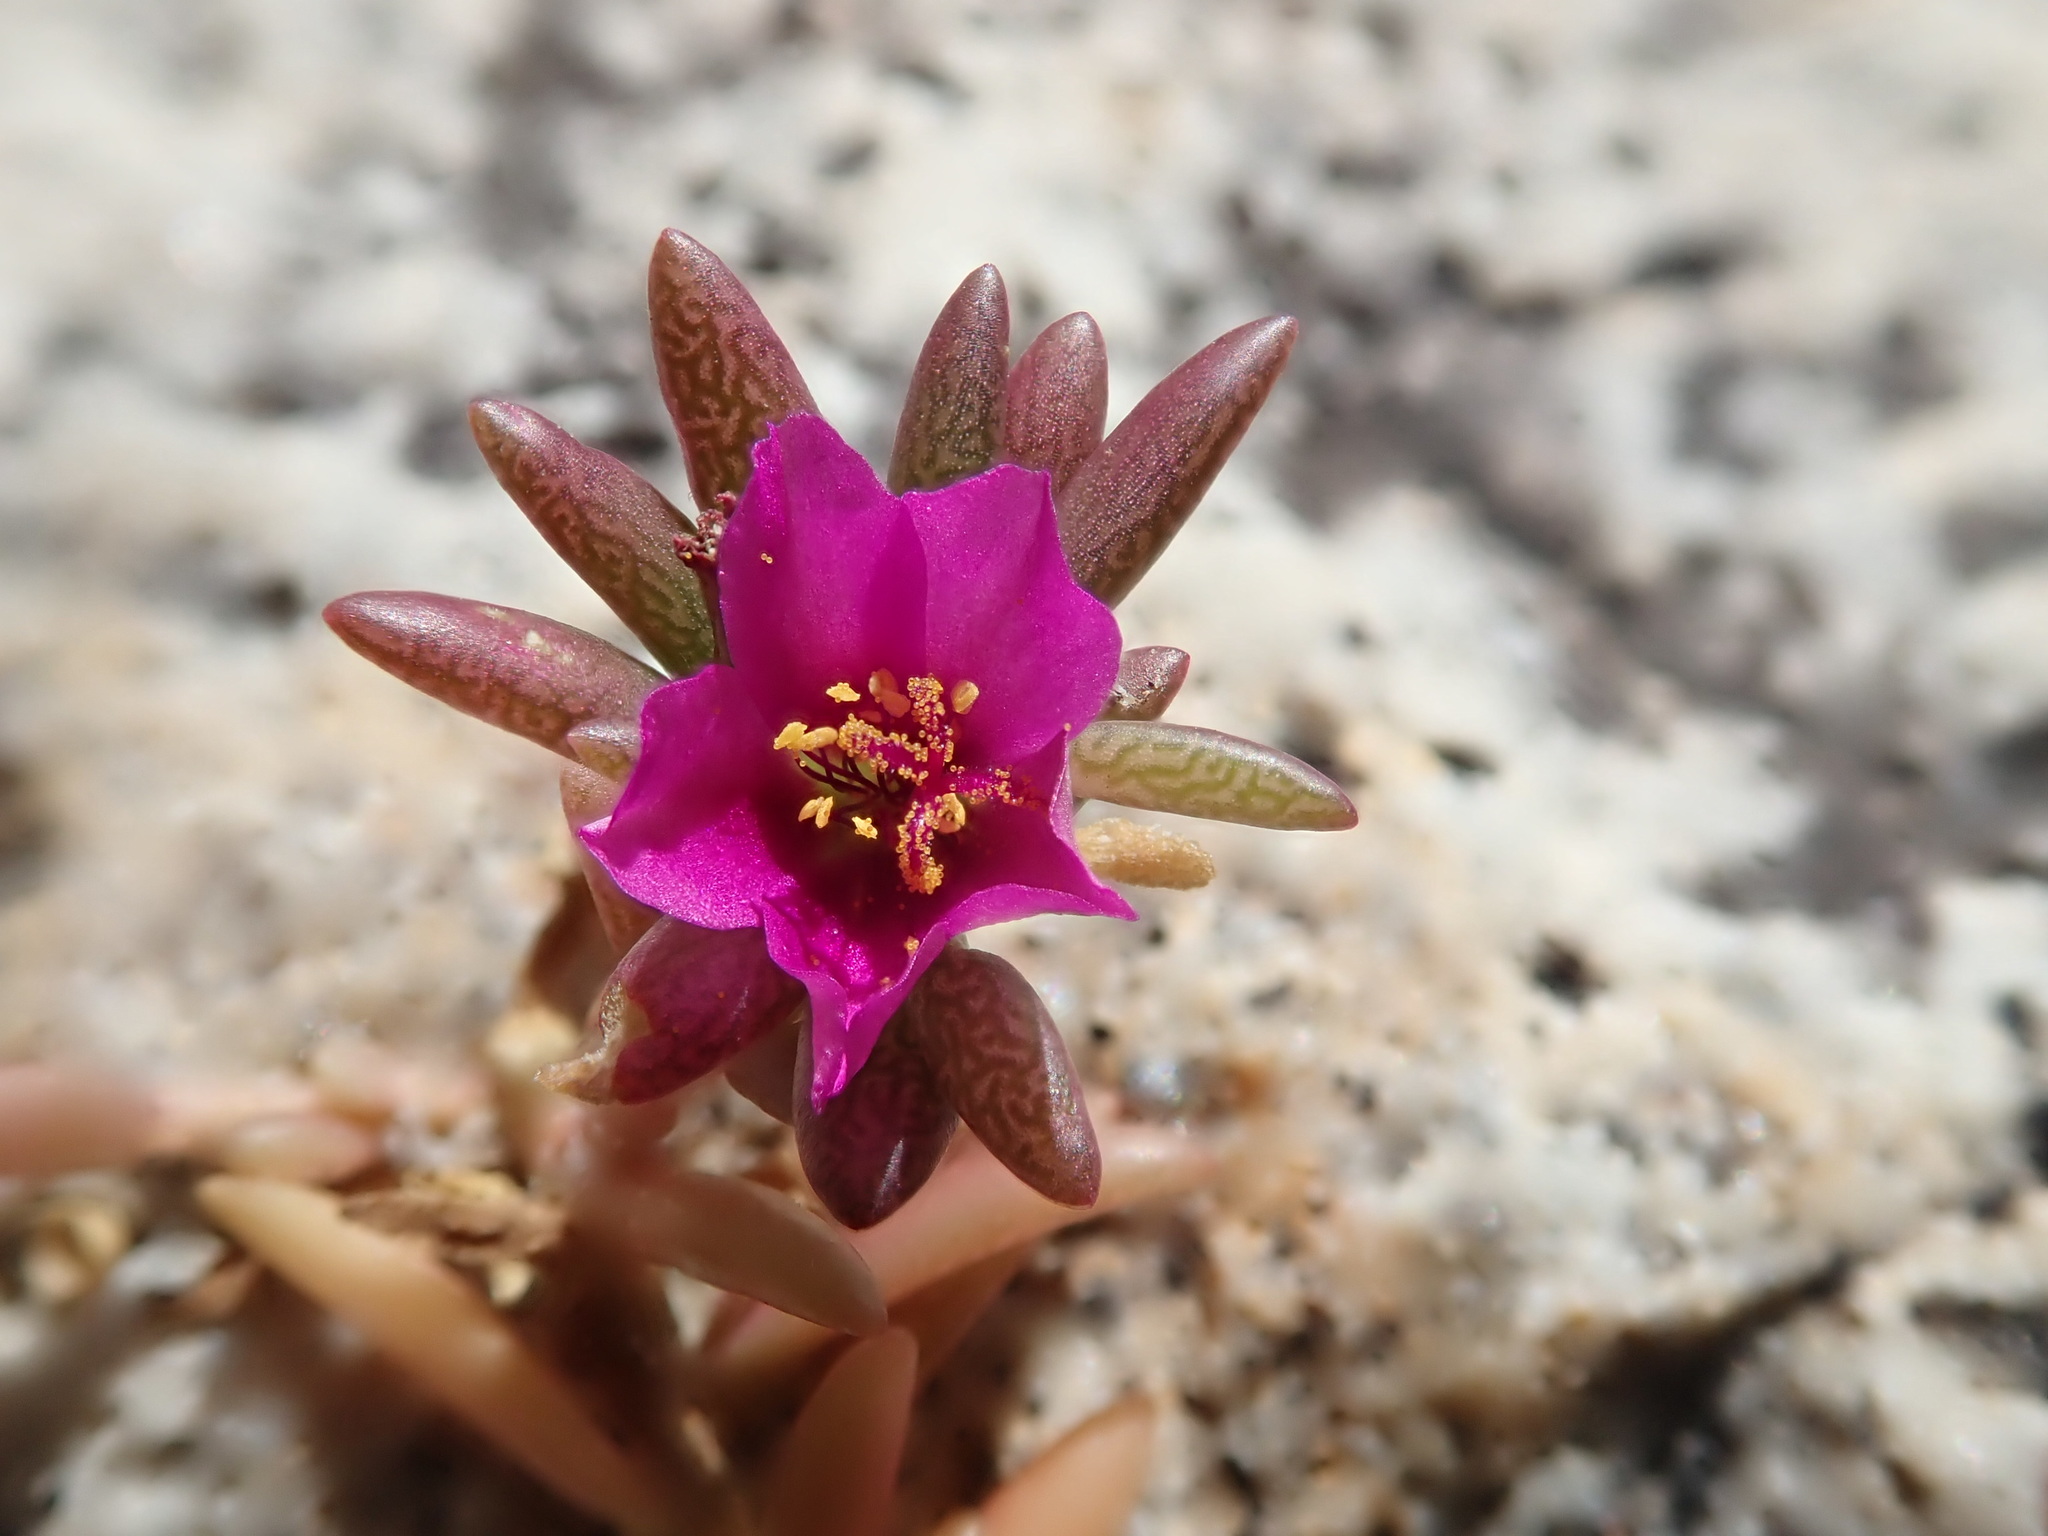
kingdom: Plantae
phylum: Tracheophyta
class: Magnoliopsida
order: Caryophyllales
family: Portulacaceae
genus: Portulaca
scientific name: Portulaca pilosa
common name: Kiss me quick
